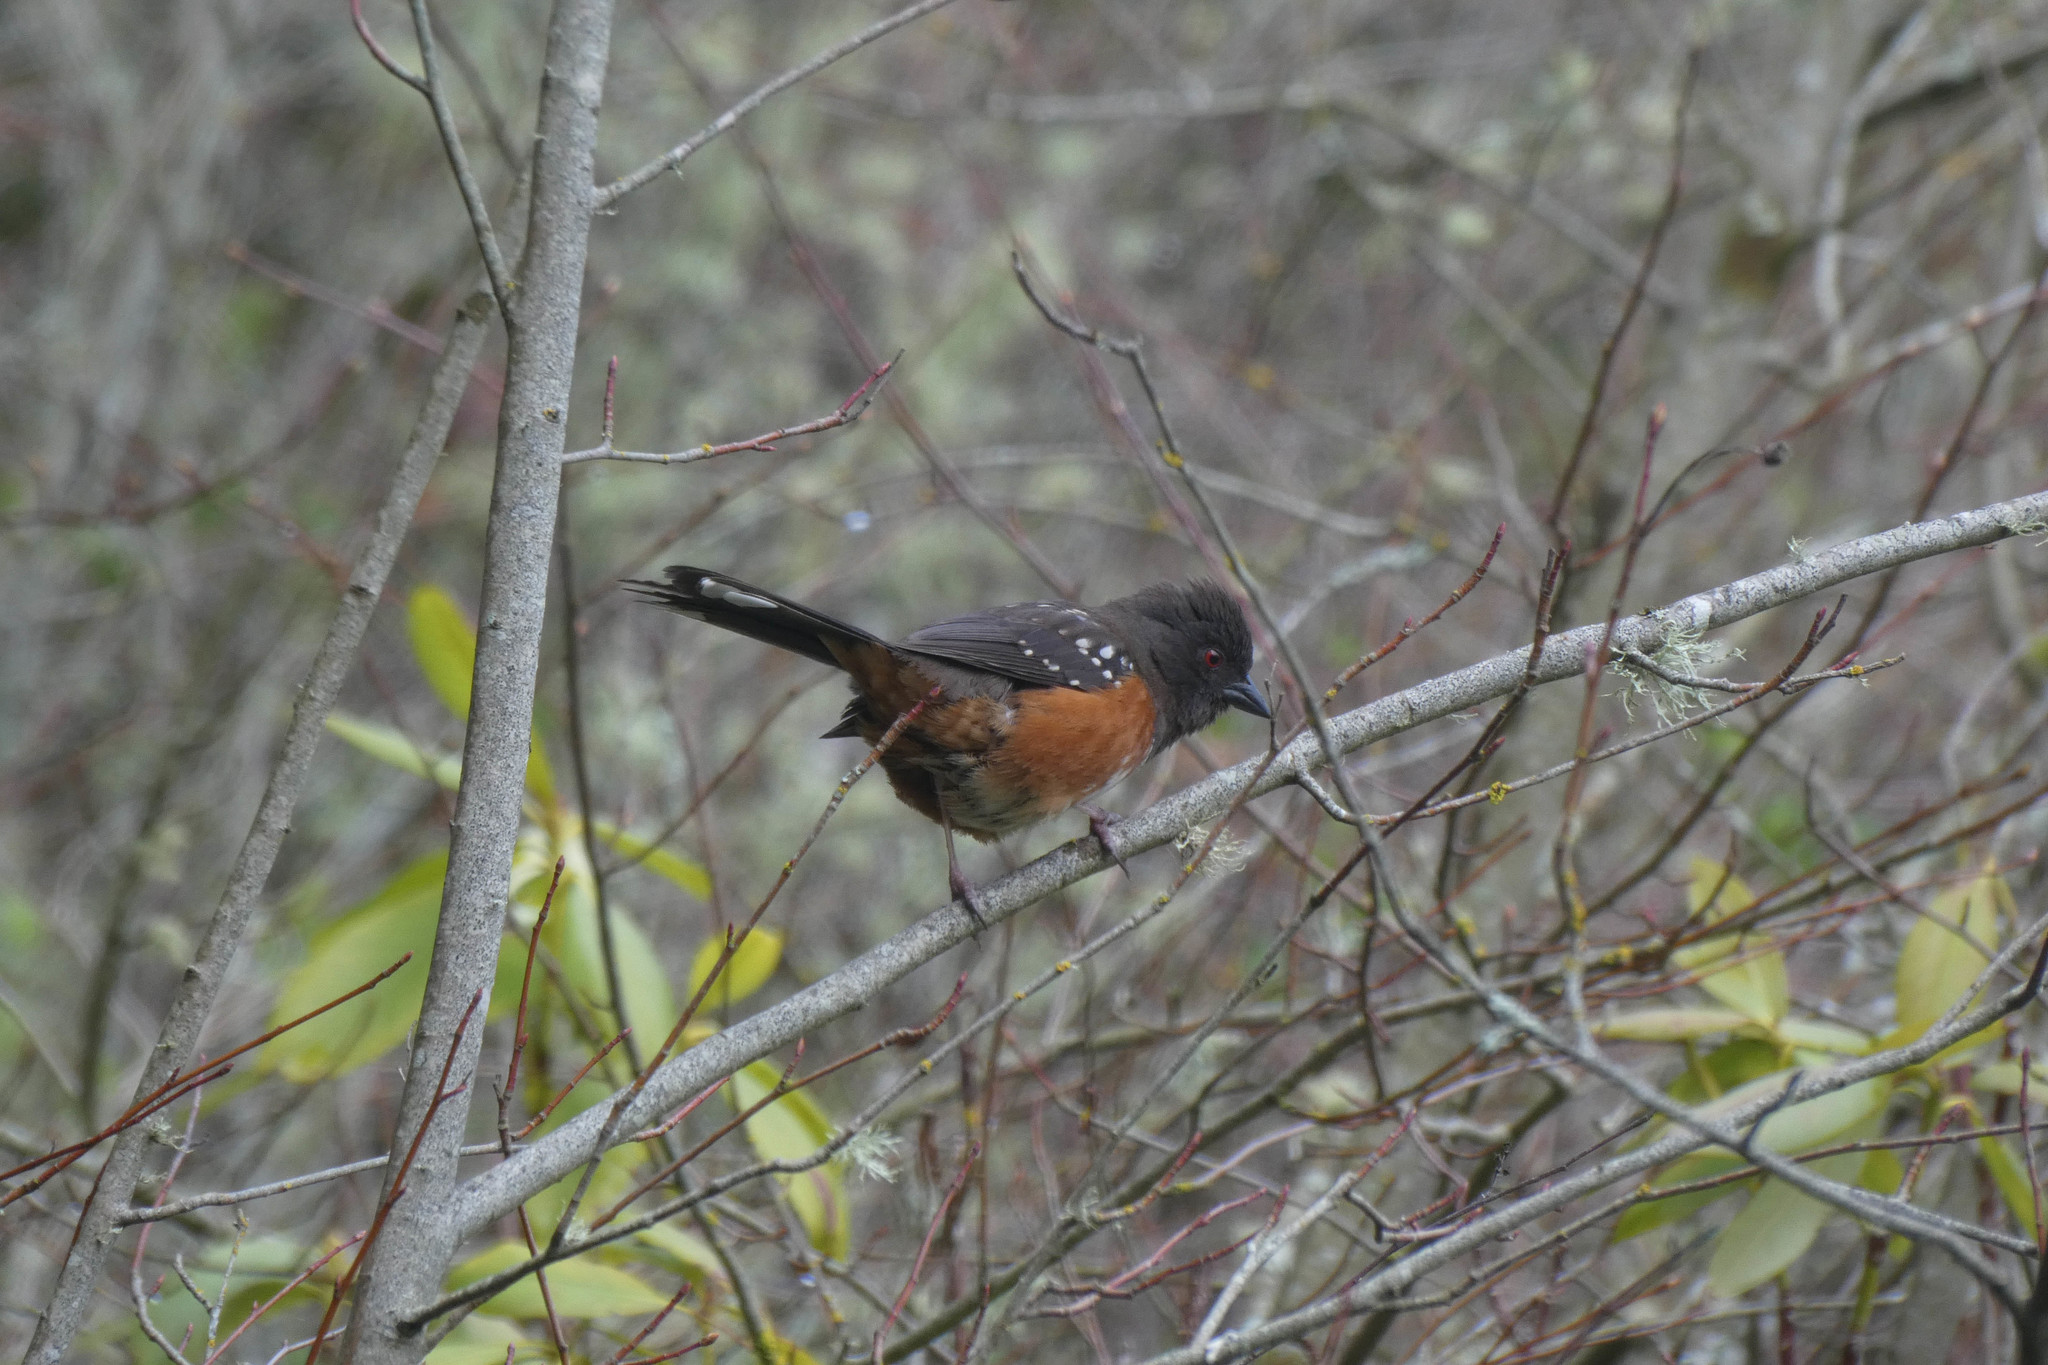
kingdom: Animalia
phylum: Chordata
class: Aves
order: Passeriformes
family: Passerellidae
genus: Pipilo
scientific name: Pipilo maculatus
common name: Spotted towhee
